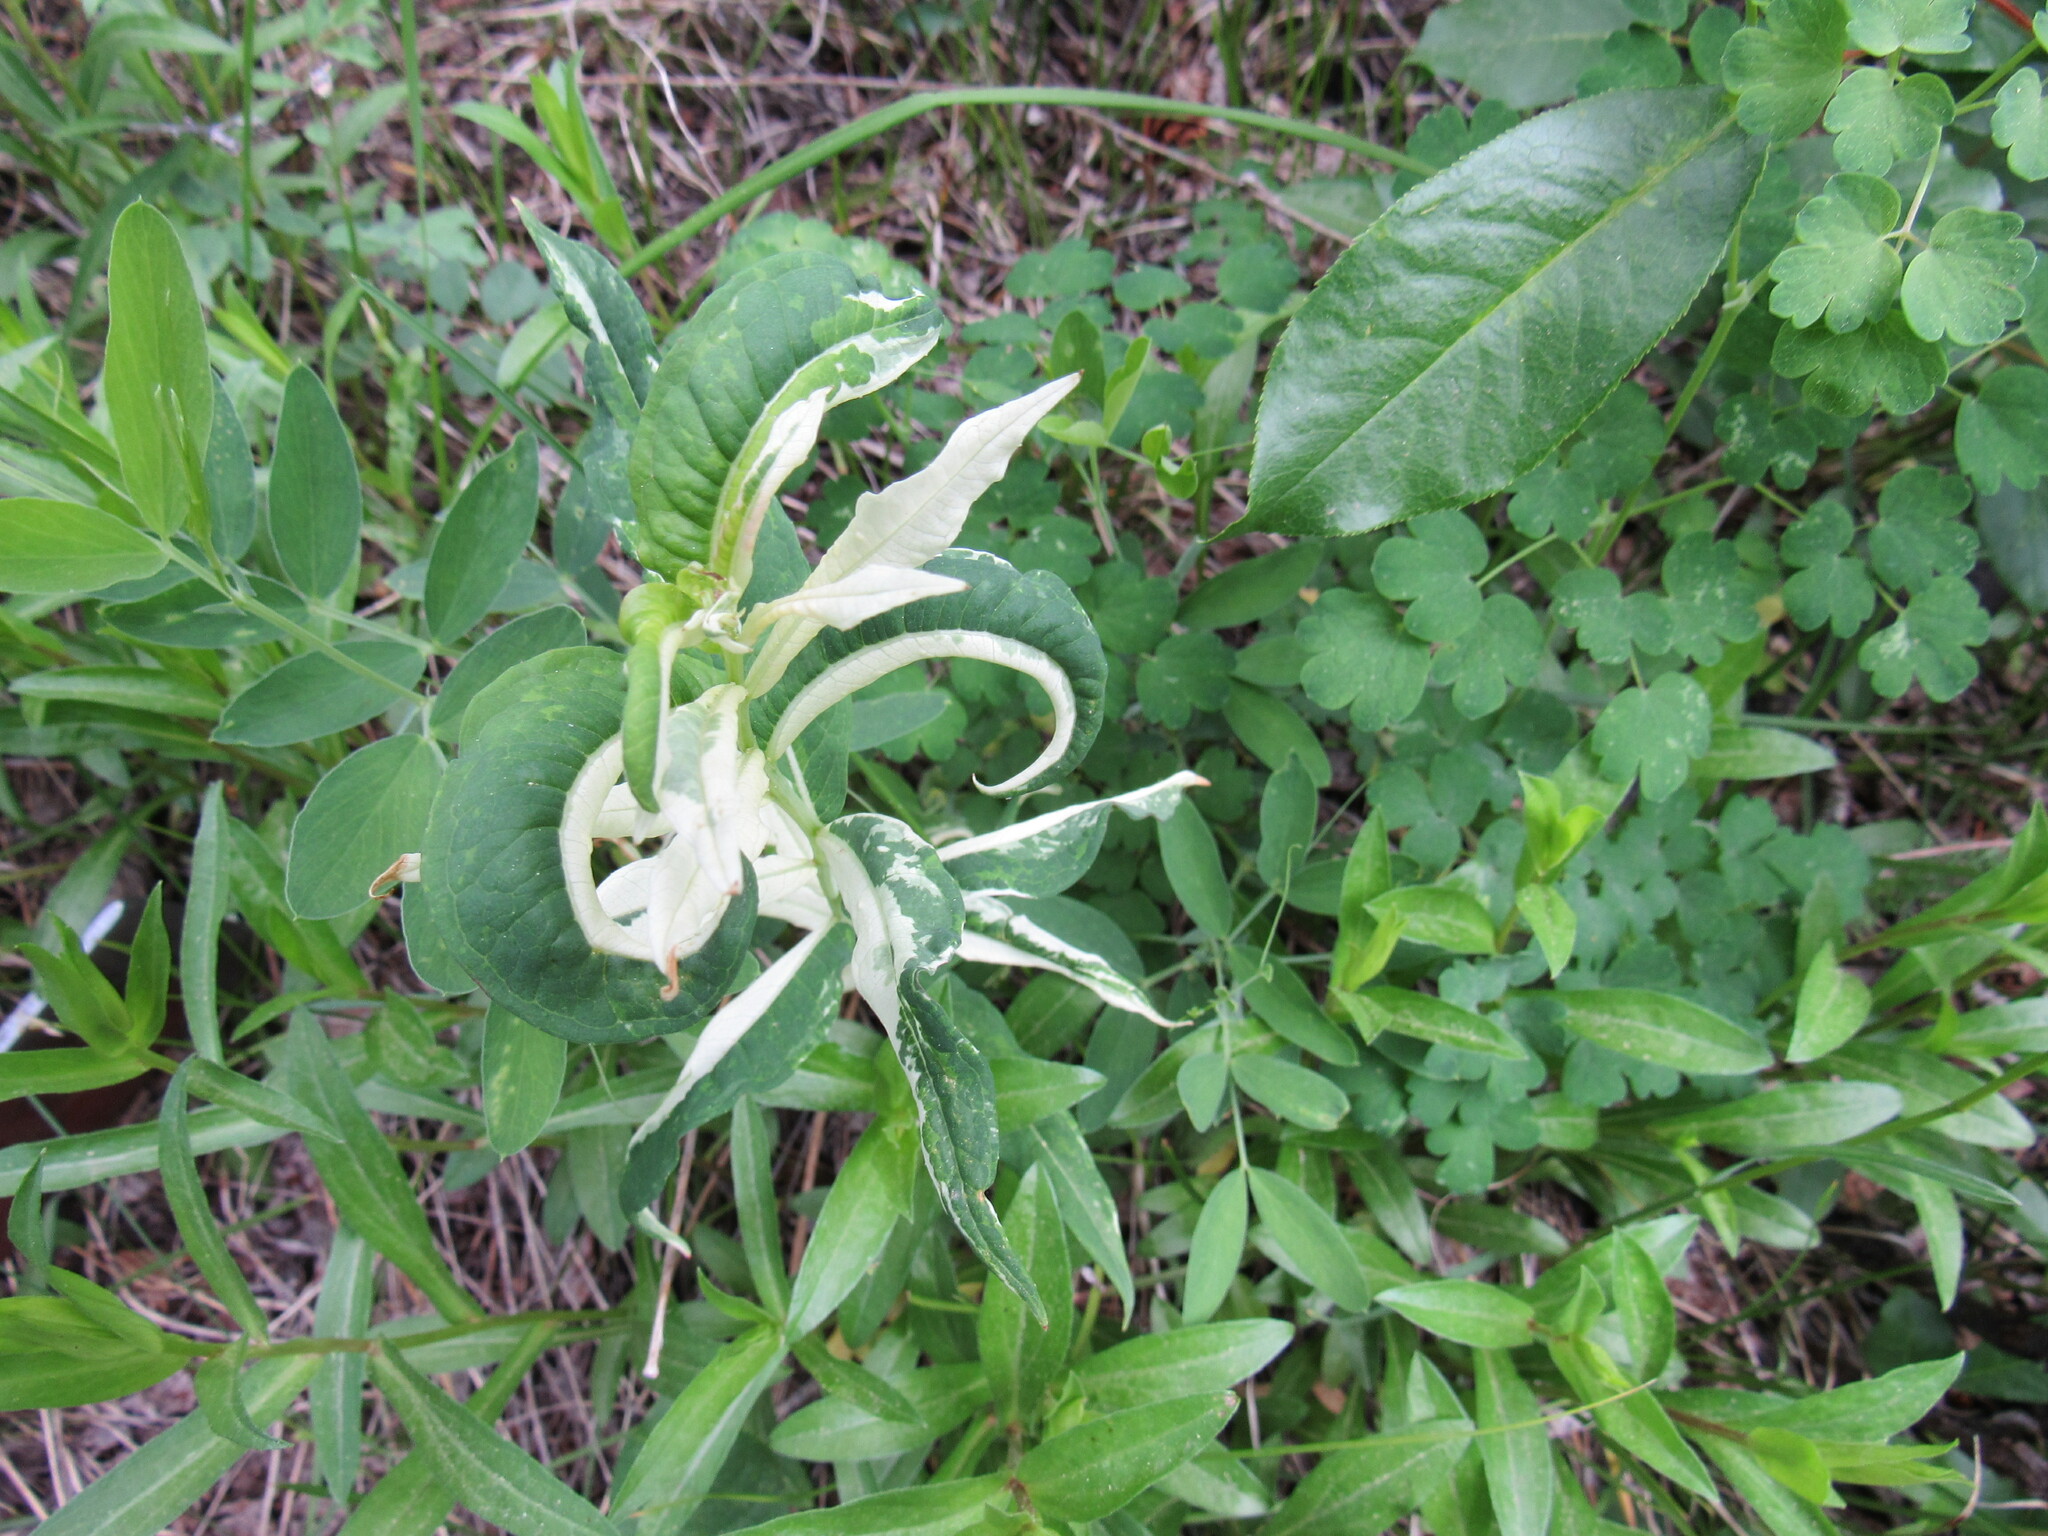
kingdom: Plantae
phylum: Tracheophyta
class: Magnoliopsida
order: Myrtales
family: Onagraceae
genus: Chamaenerion
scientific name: Chamaenerion angustifolium
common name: Fireweed
